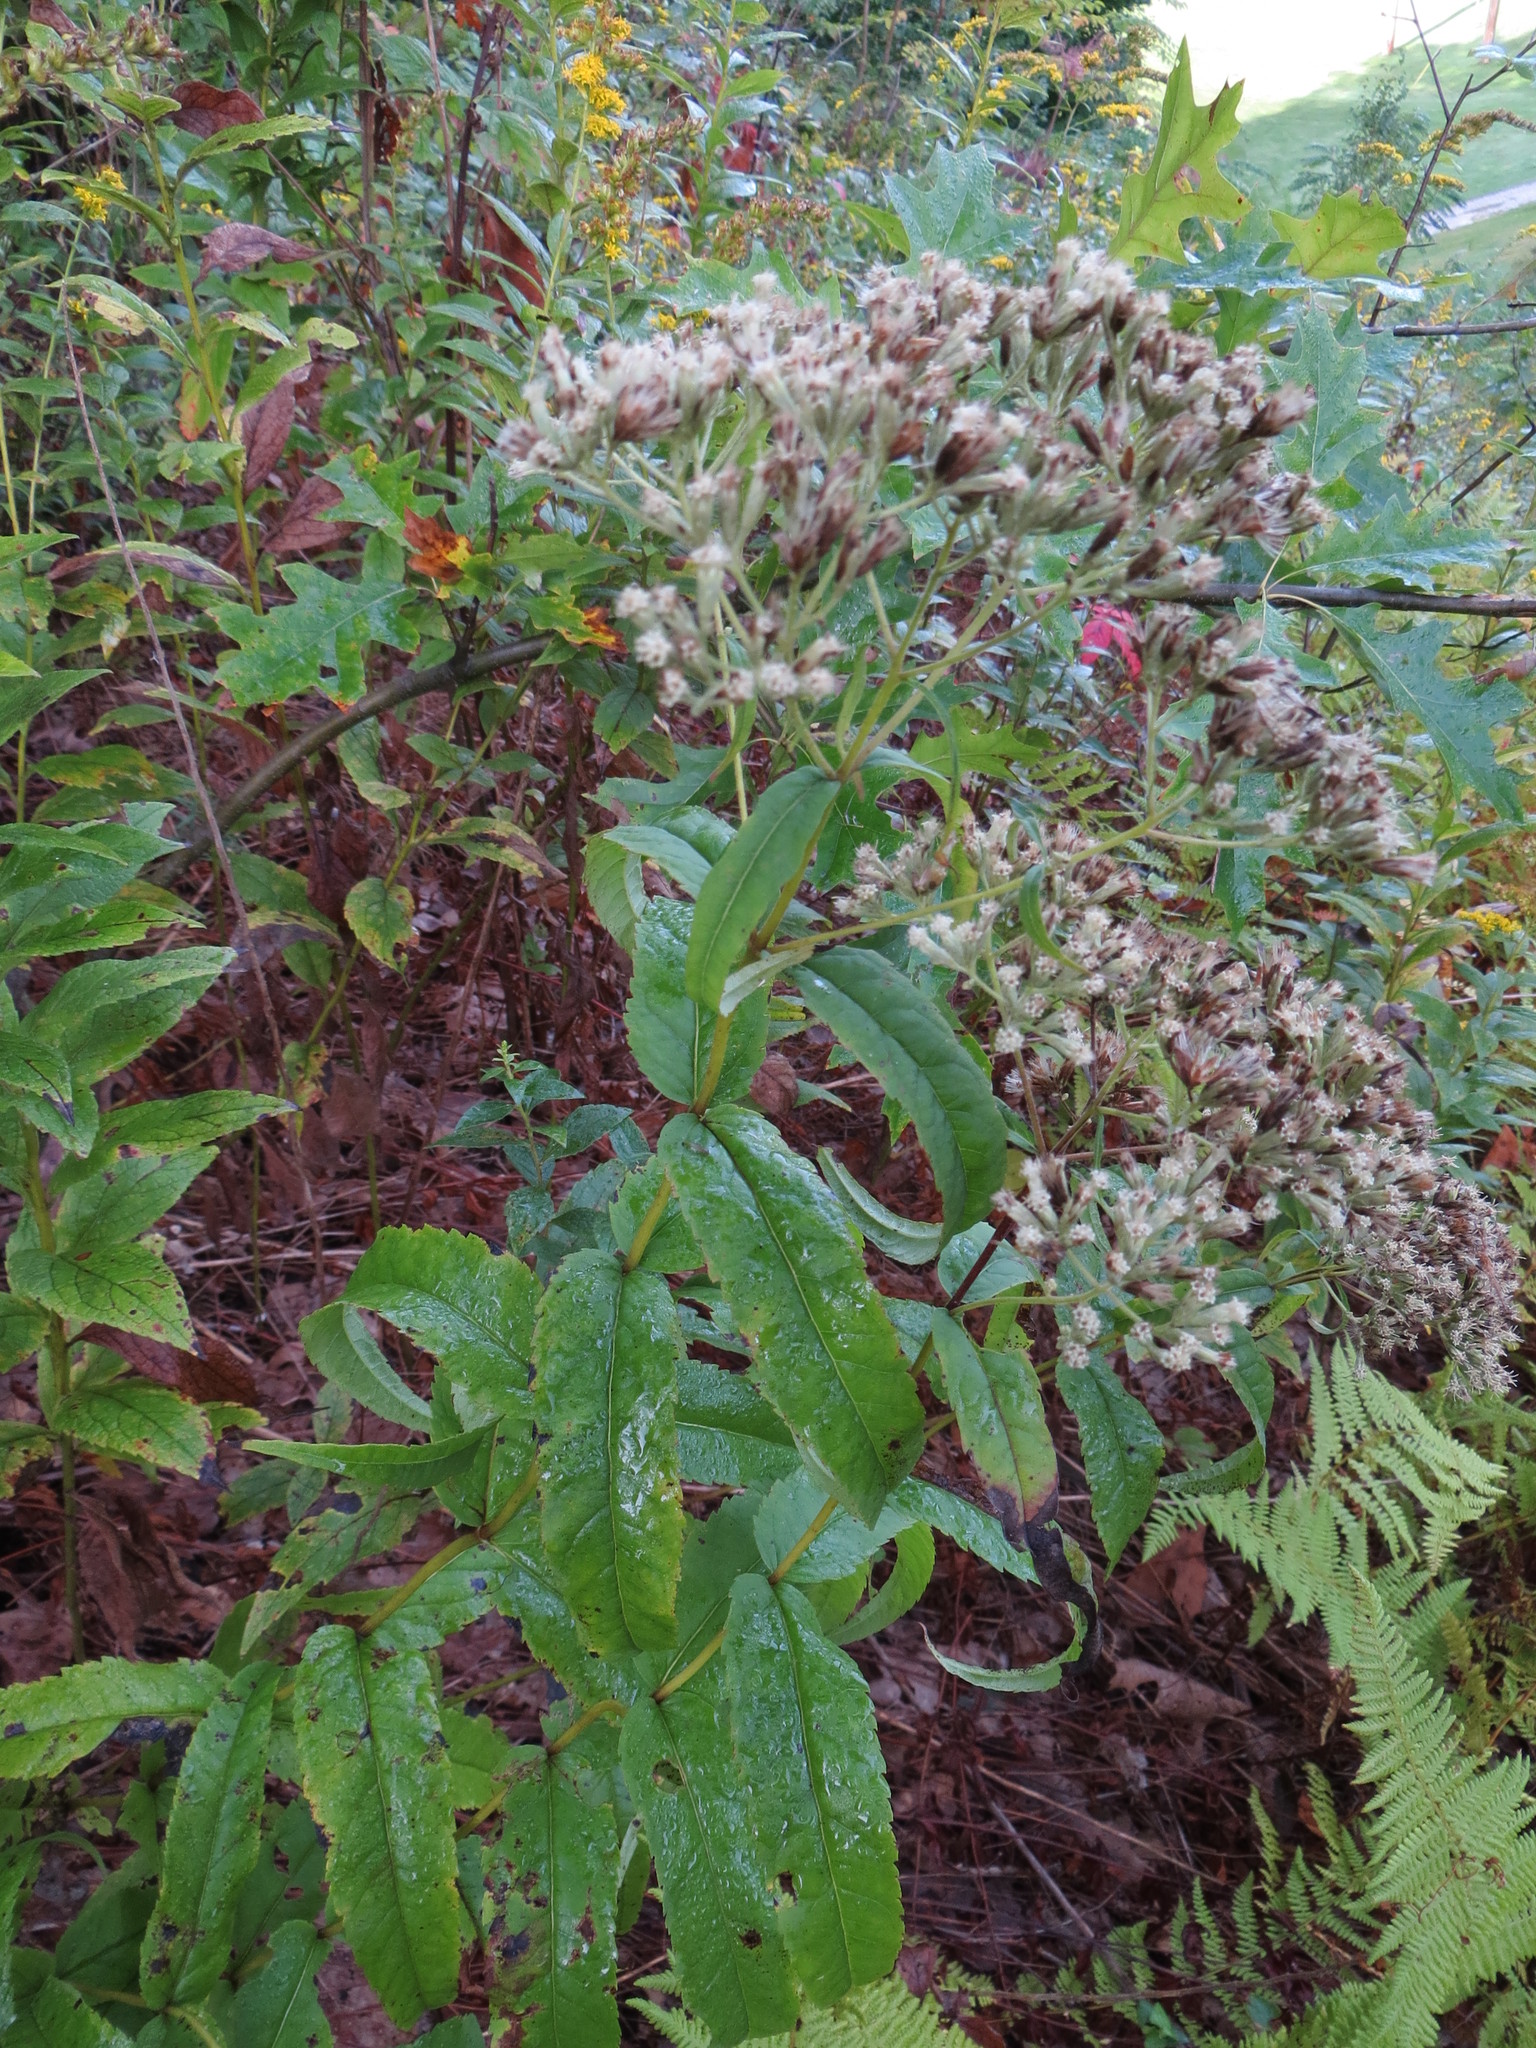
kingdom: Plantae
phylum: Tracheophyta
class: Magnoliopsida
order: Asterales
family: Asteraceae
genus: Eupatorium
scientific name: Eupatorium sessilifolium
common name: Upland boneset
